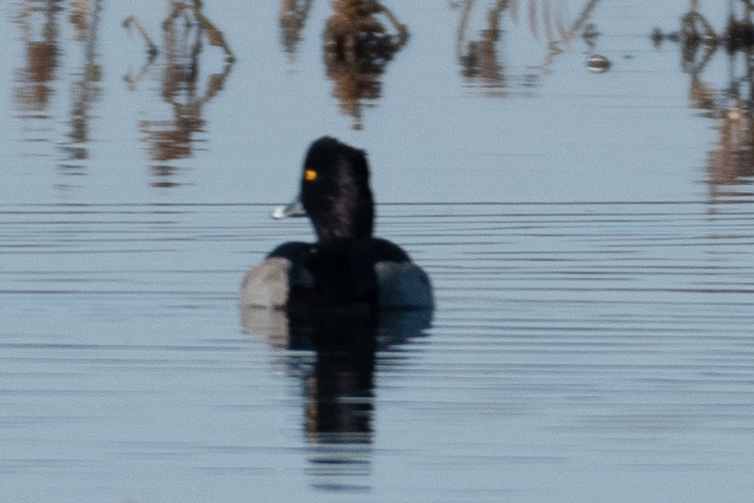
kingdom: Animalia
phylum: Chordata
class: Aves
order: Anseriformes
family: Anatidae
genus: Aythya
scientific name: Aythya collaris
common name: Ring-necked duck
